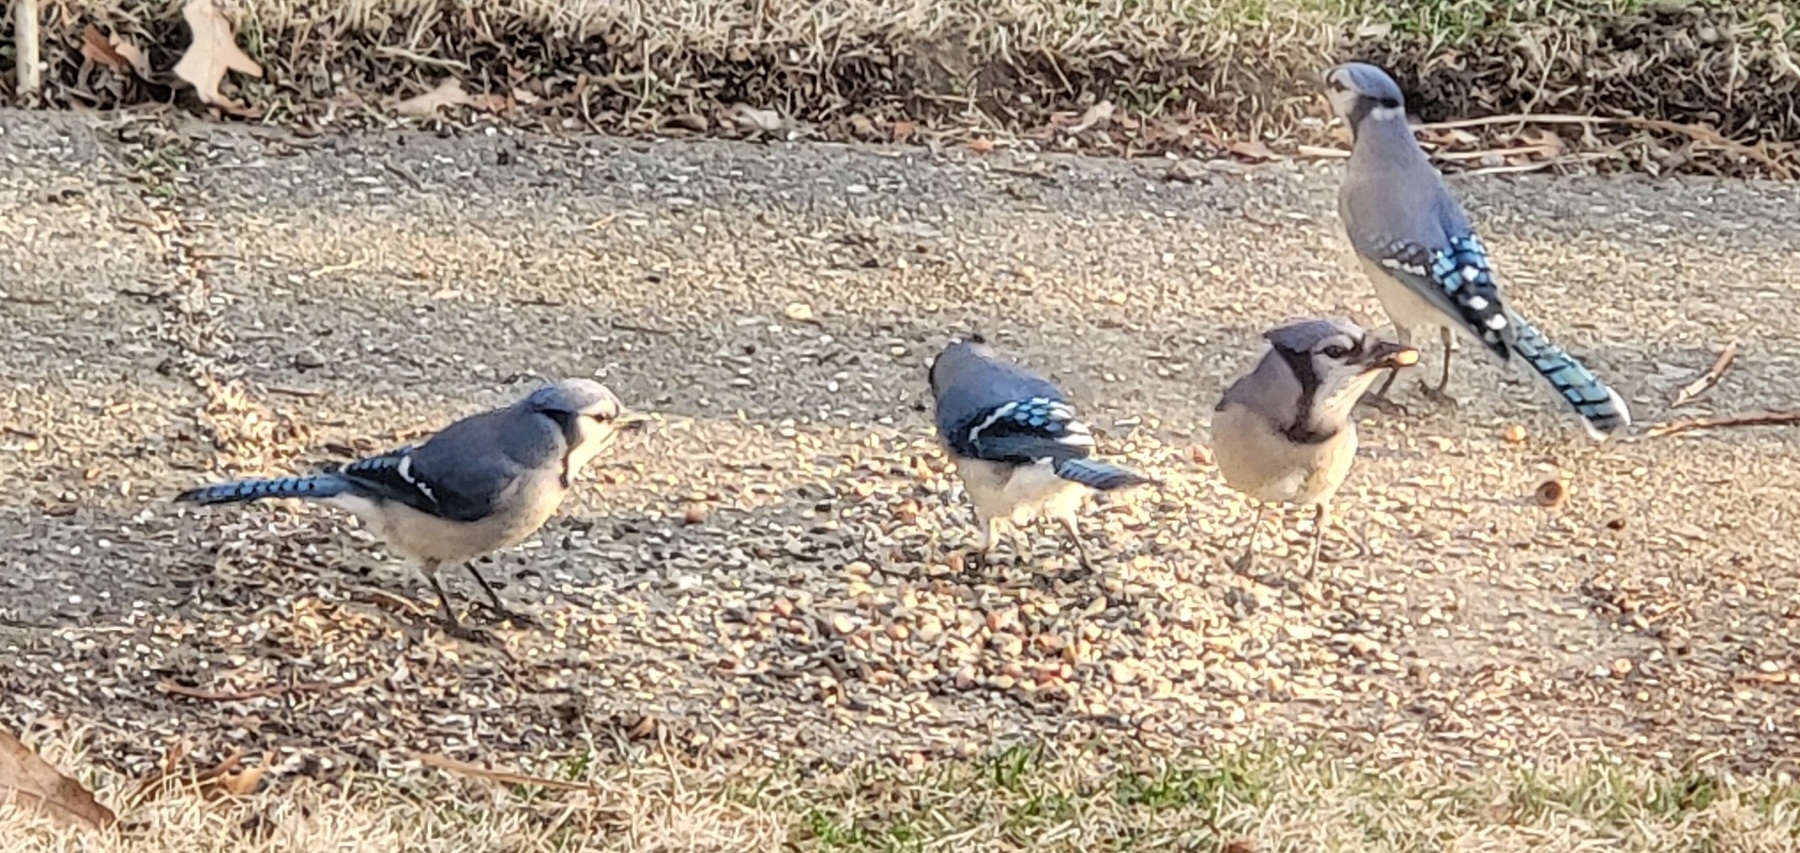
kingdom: Animalia
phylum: Chordata
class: Aves
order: Passeriformes
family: Corvidae
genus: Cyanocitta
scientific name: Cyanocitta cristata
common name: Blue jay
